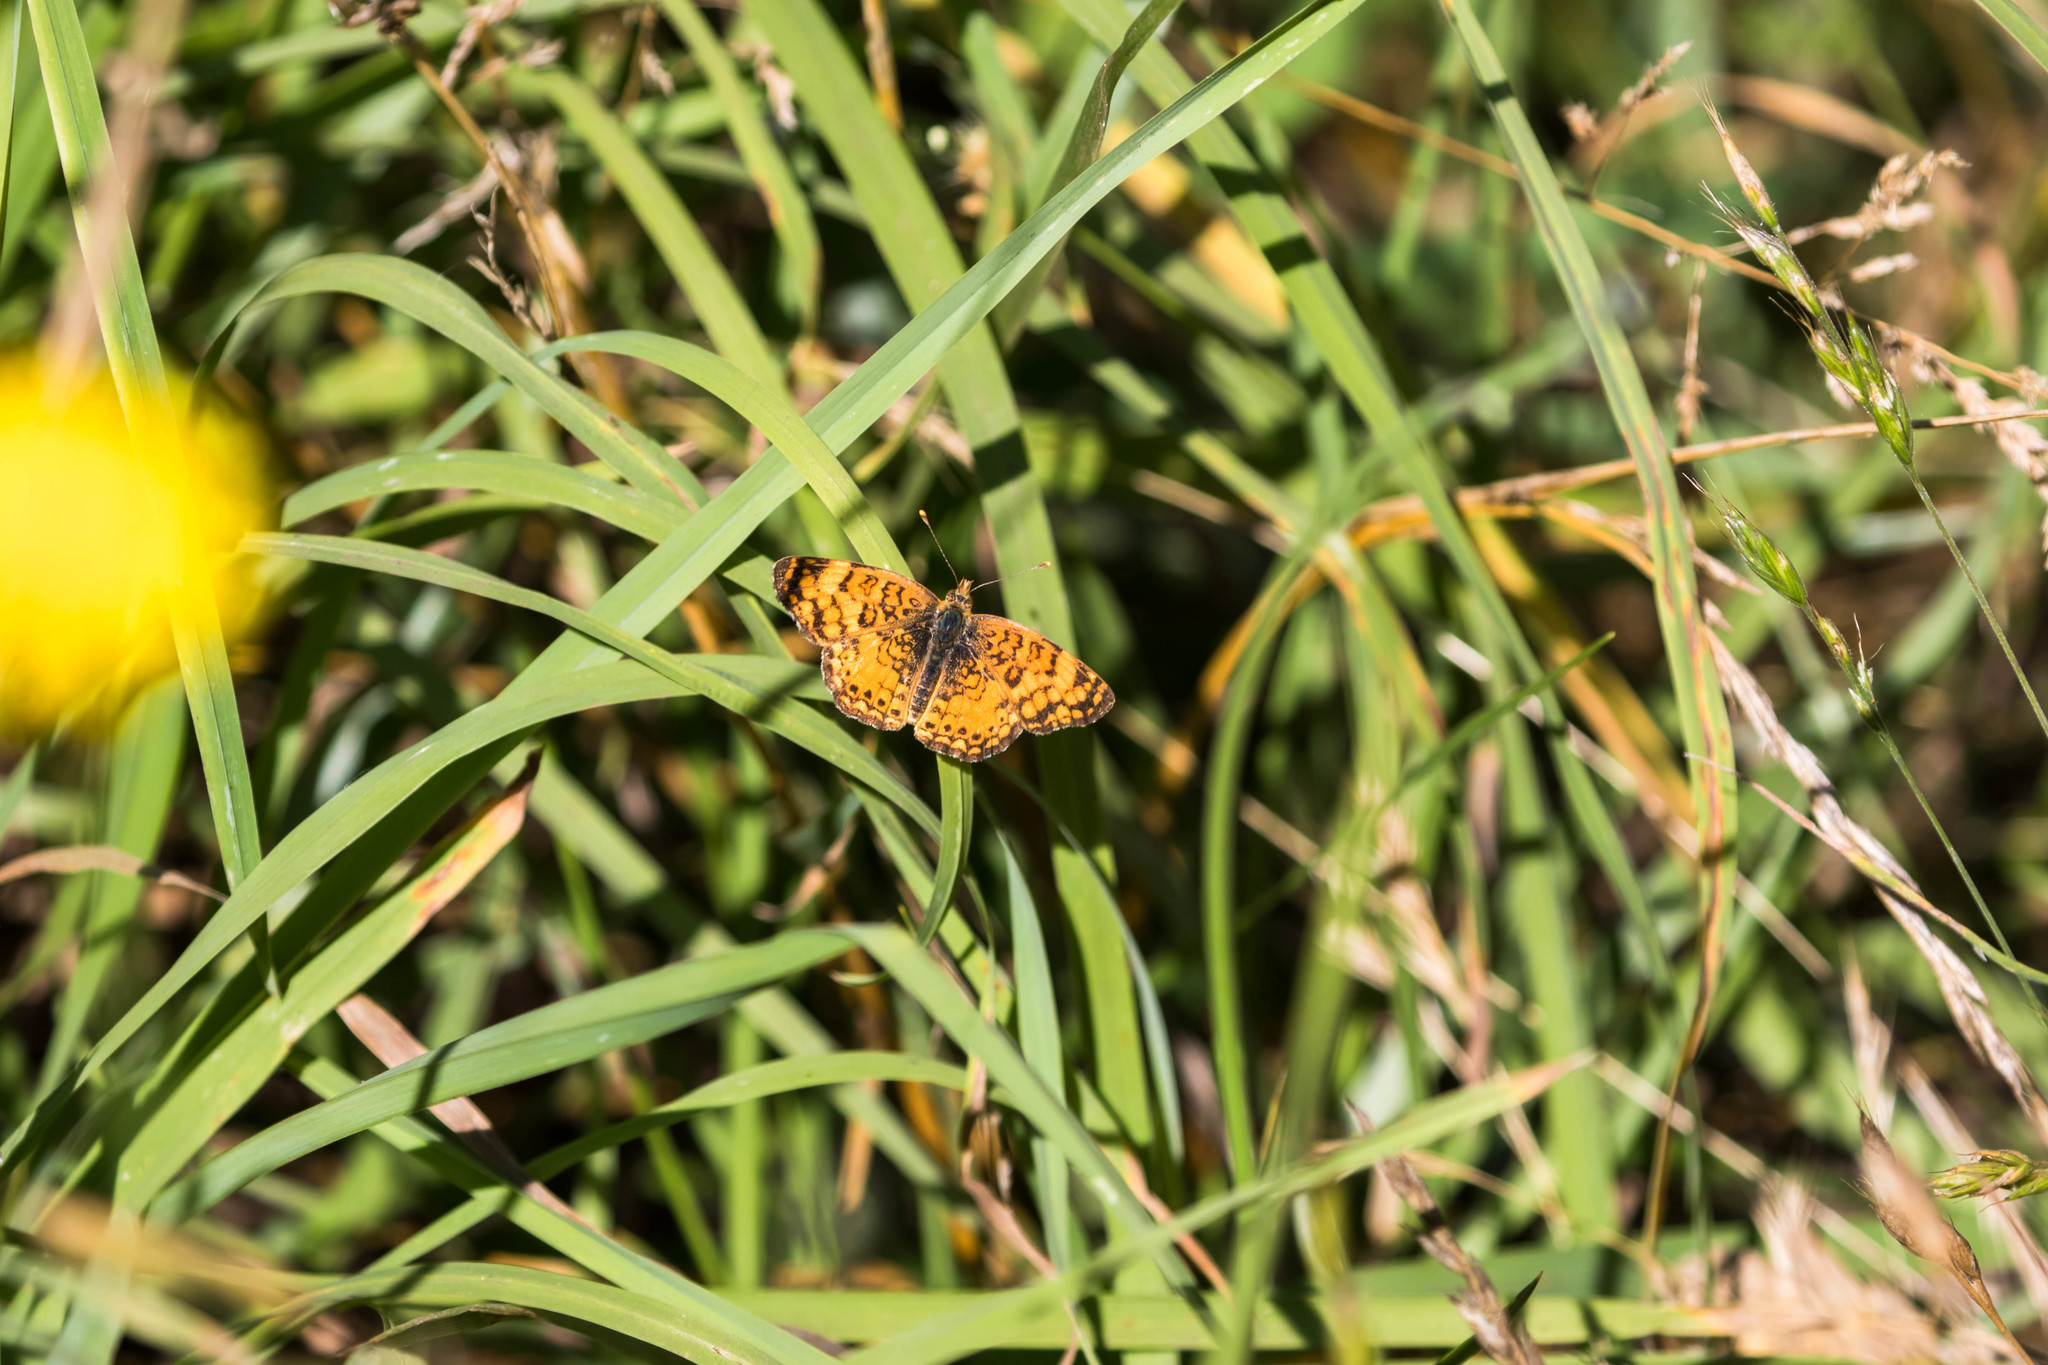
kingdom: Animalia
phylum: Arthropoda
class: Insecta
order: Lepidoptera
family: Nymphalidae
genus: Eresia
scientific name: Eresia aveyrona
